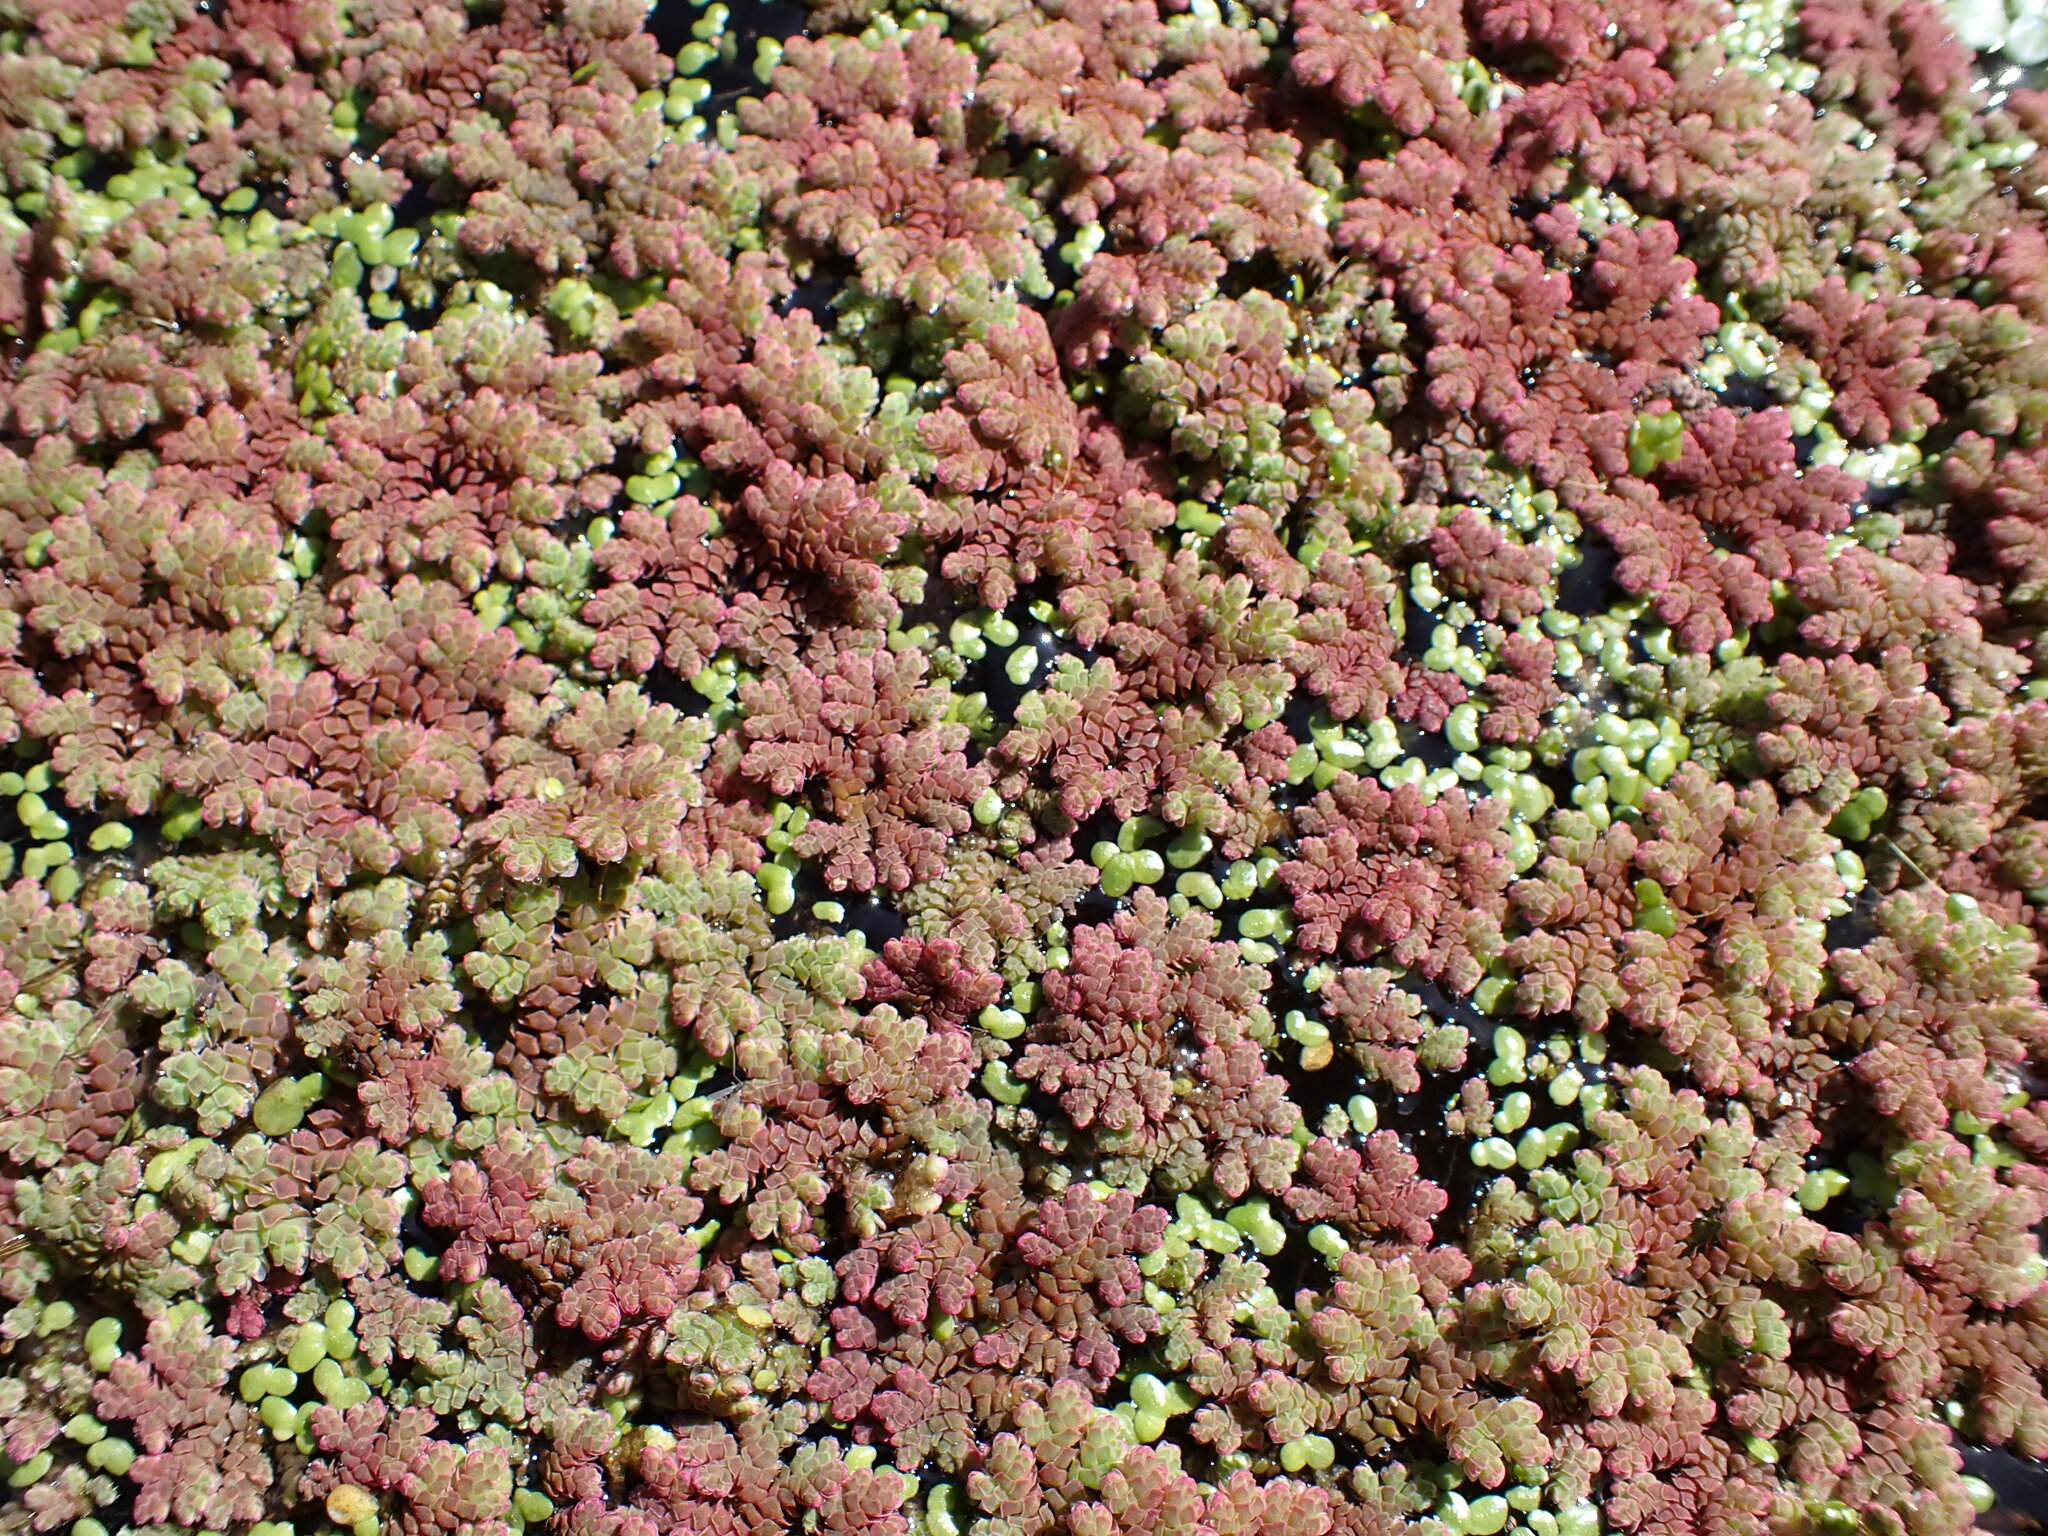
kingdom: Plantae
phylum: Tracheophyta
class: Polypodiopsida
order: Salviniales
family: Salviniaceae
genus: Azolla
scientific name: Azolla rubra
